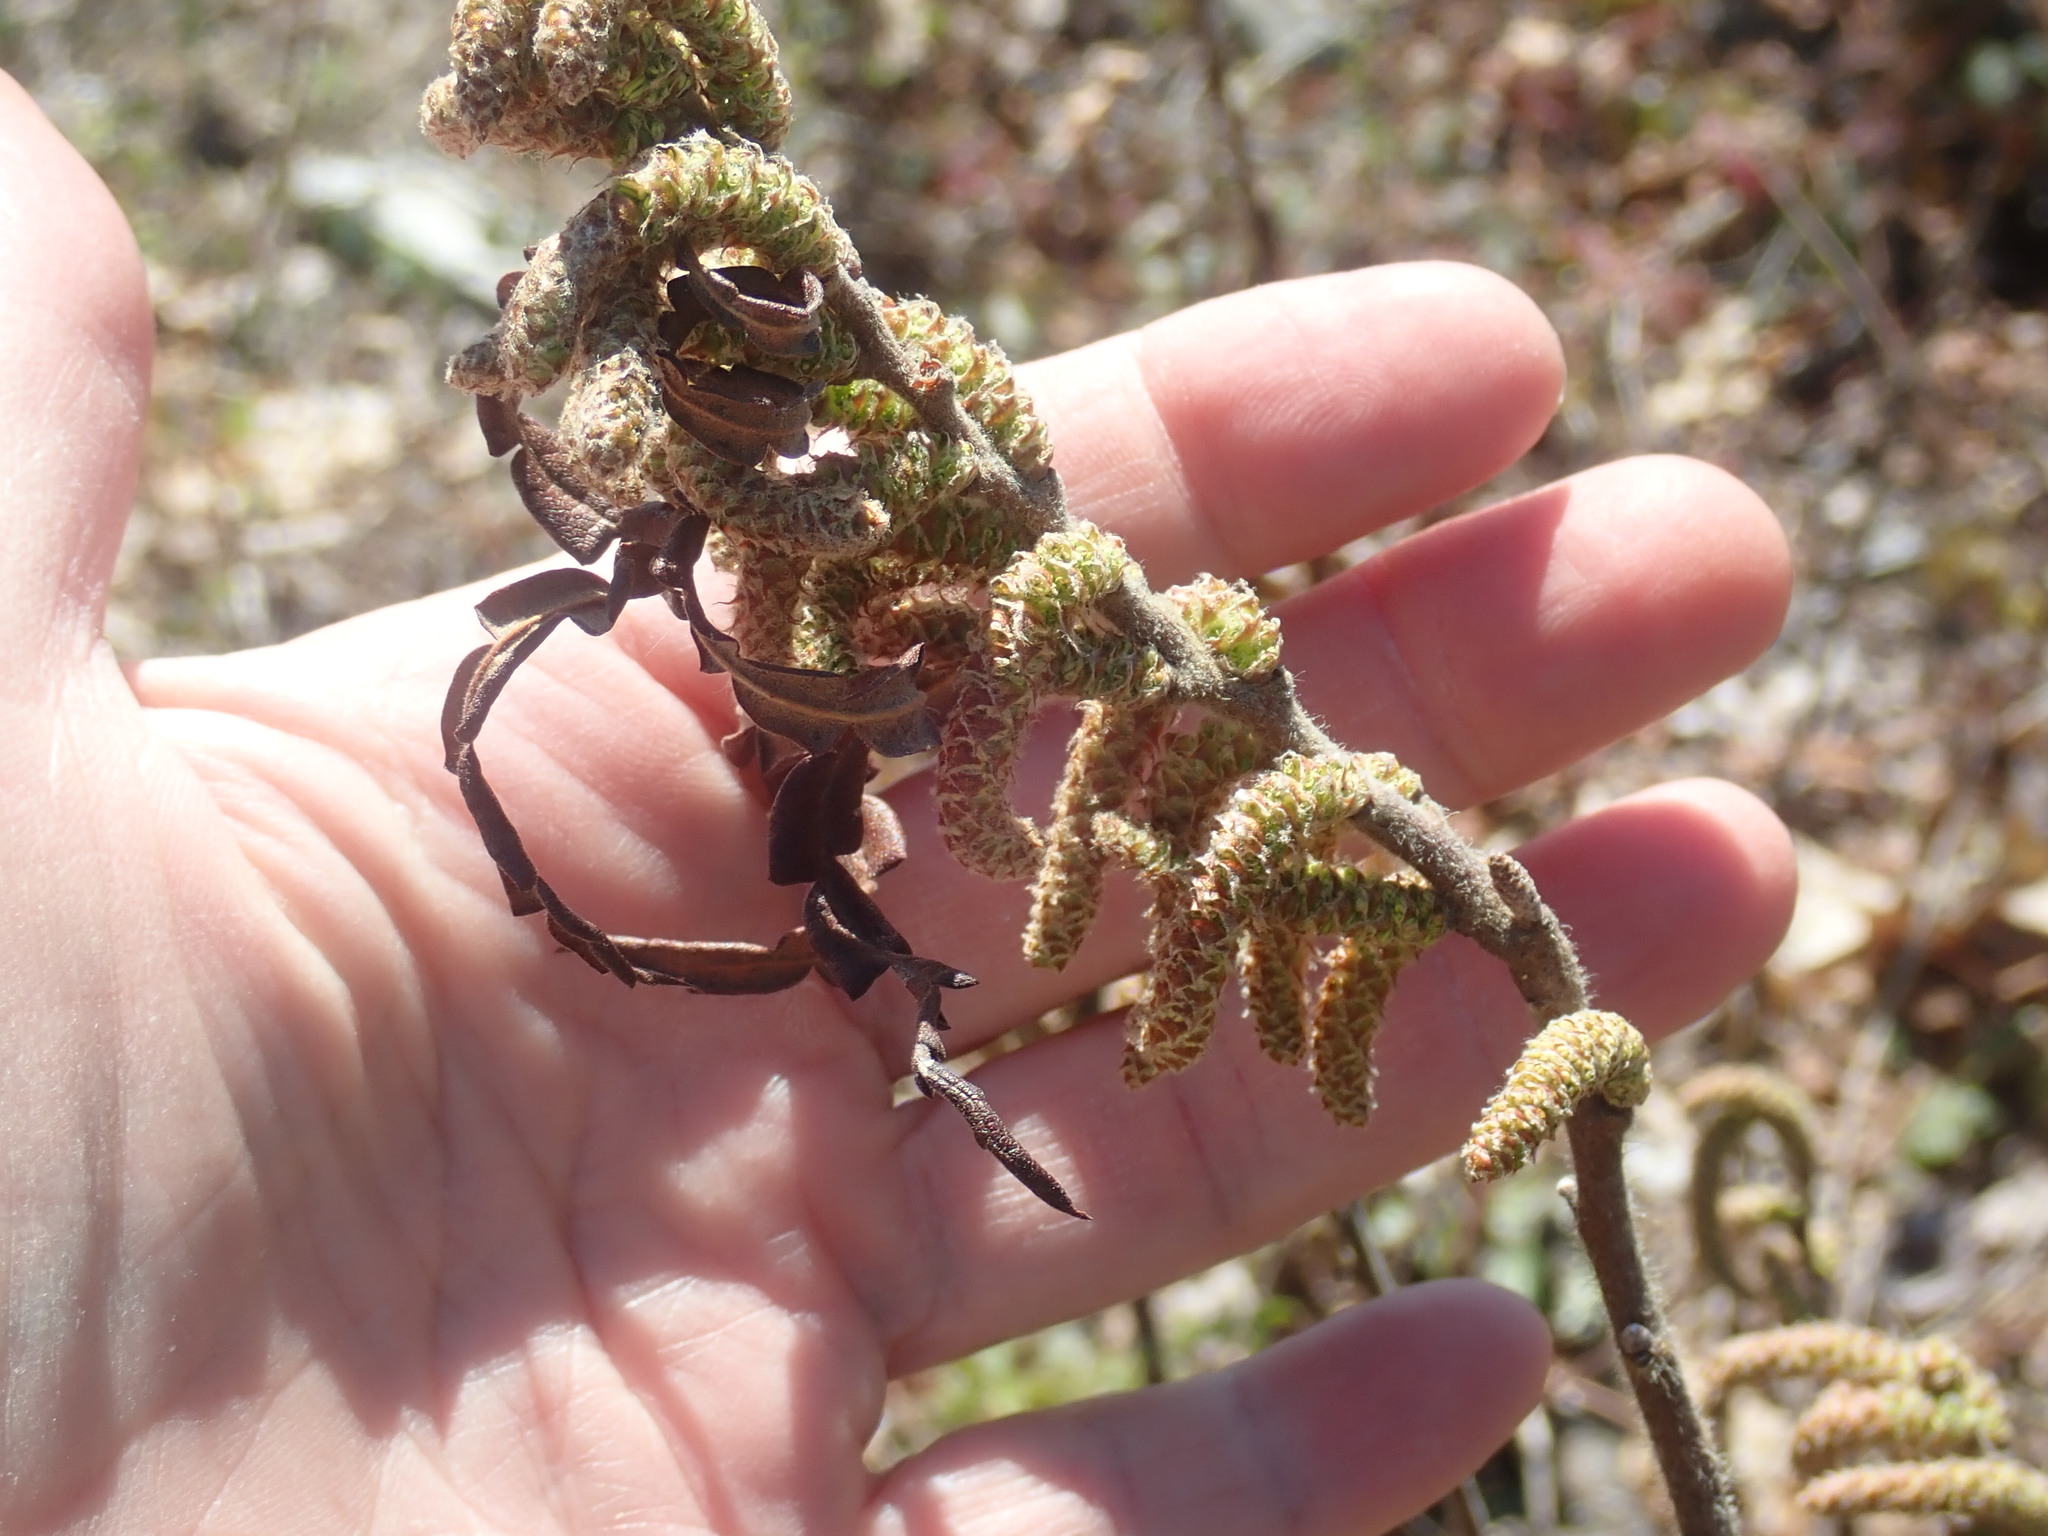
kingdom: Plantae
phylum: Tracheophyta
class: Magnoliopsida
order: Fagales
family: Myricaceae
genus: Comptonia
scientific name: Comptonia peregrina
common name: Sweet-fern
